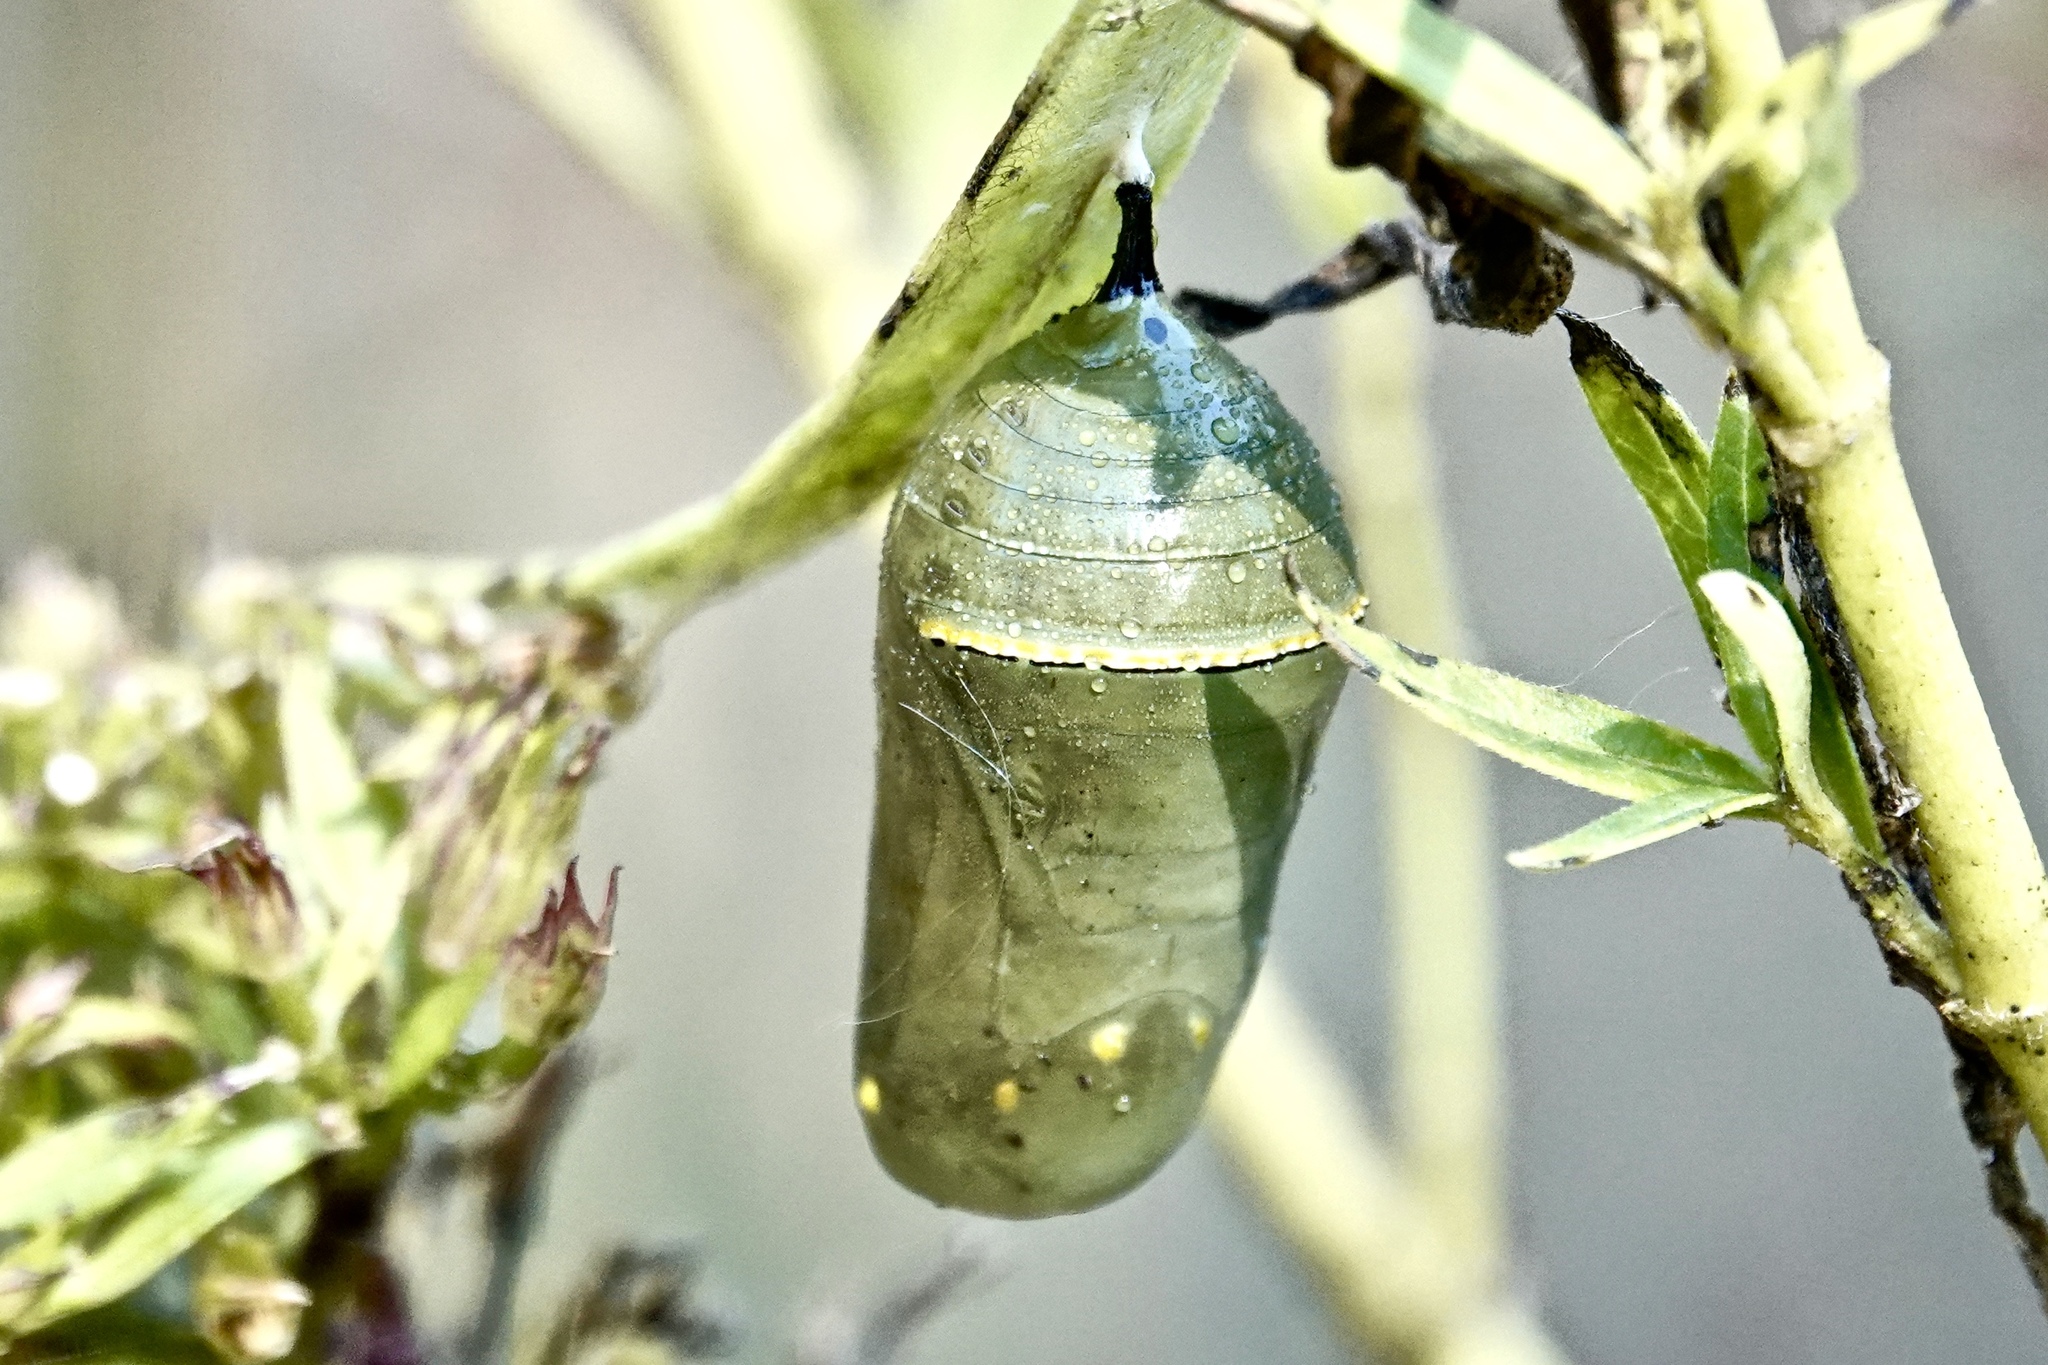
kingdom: Animalia
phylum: Arthropoda
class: Insecta
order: Lepidoptera
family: Nymphalidae
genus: Danaus
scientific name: Danaus plexippus
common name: Monarch
